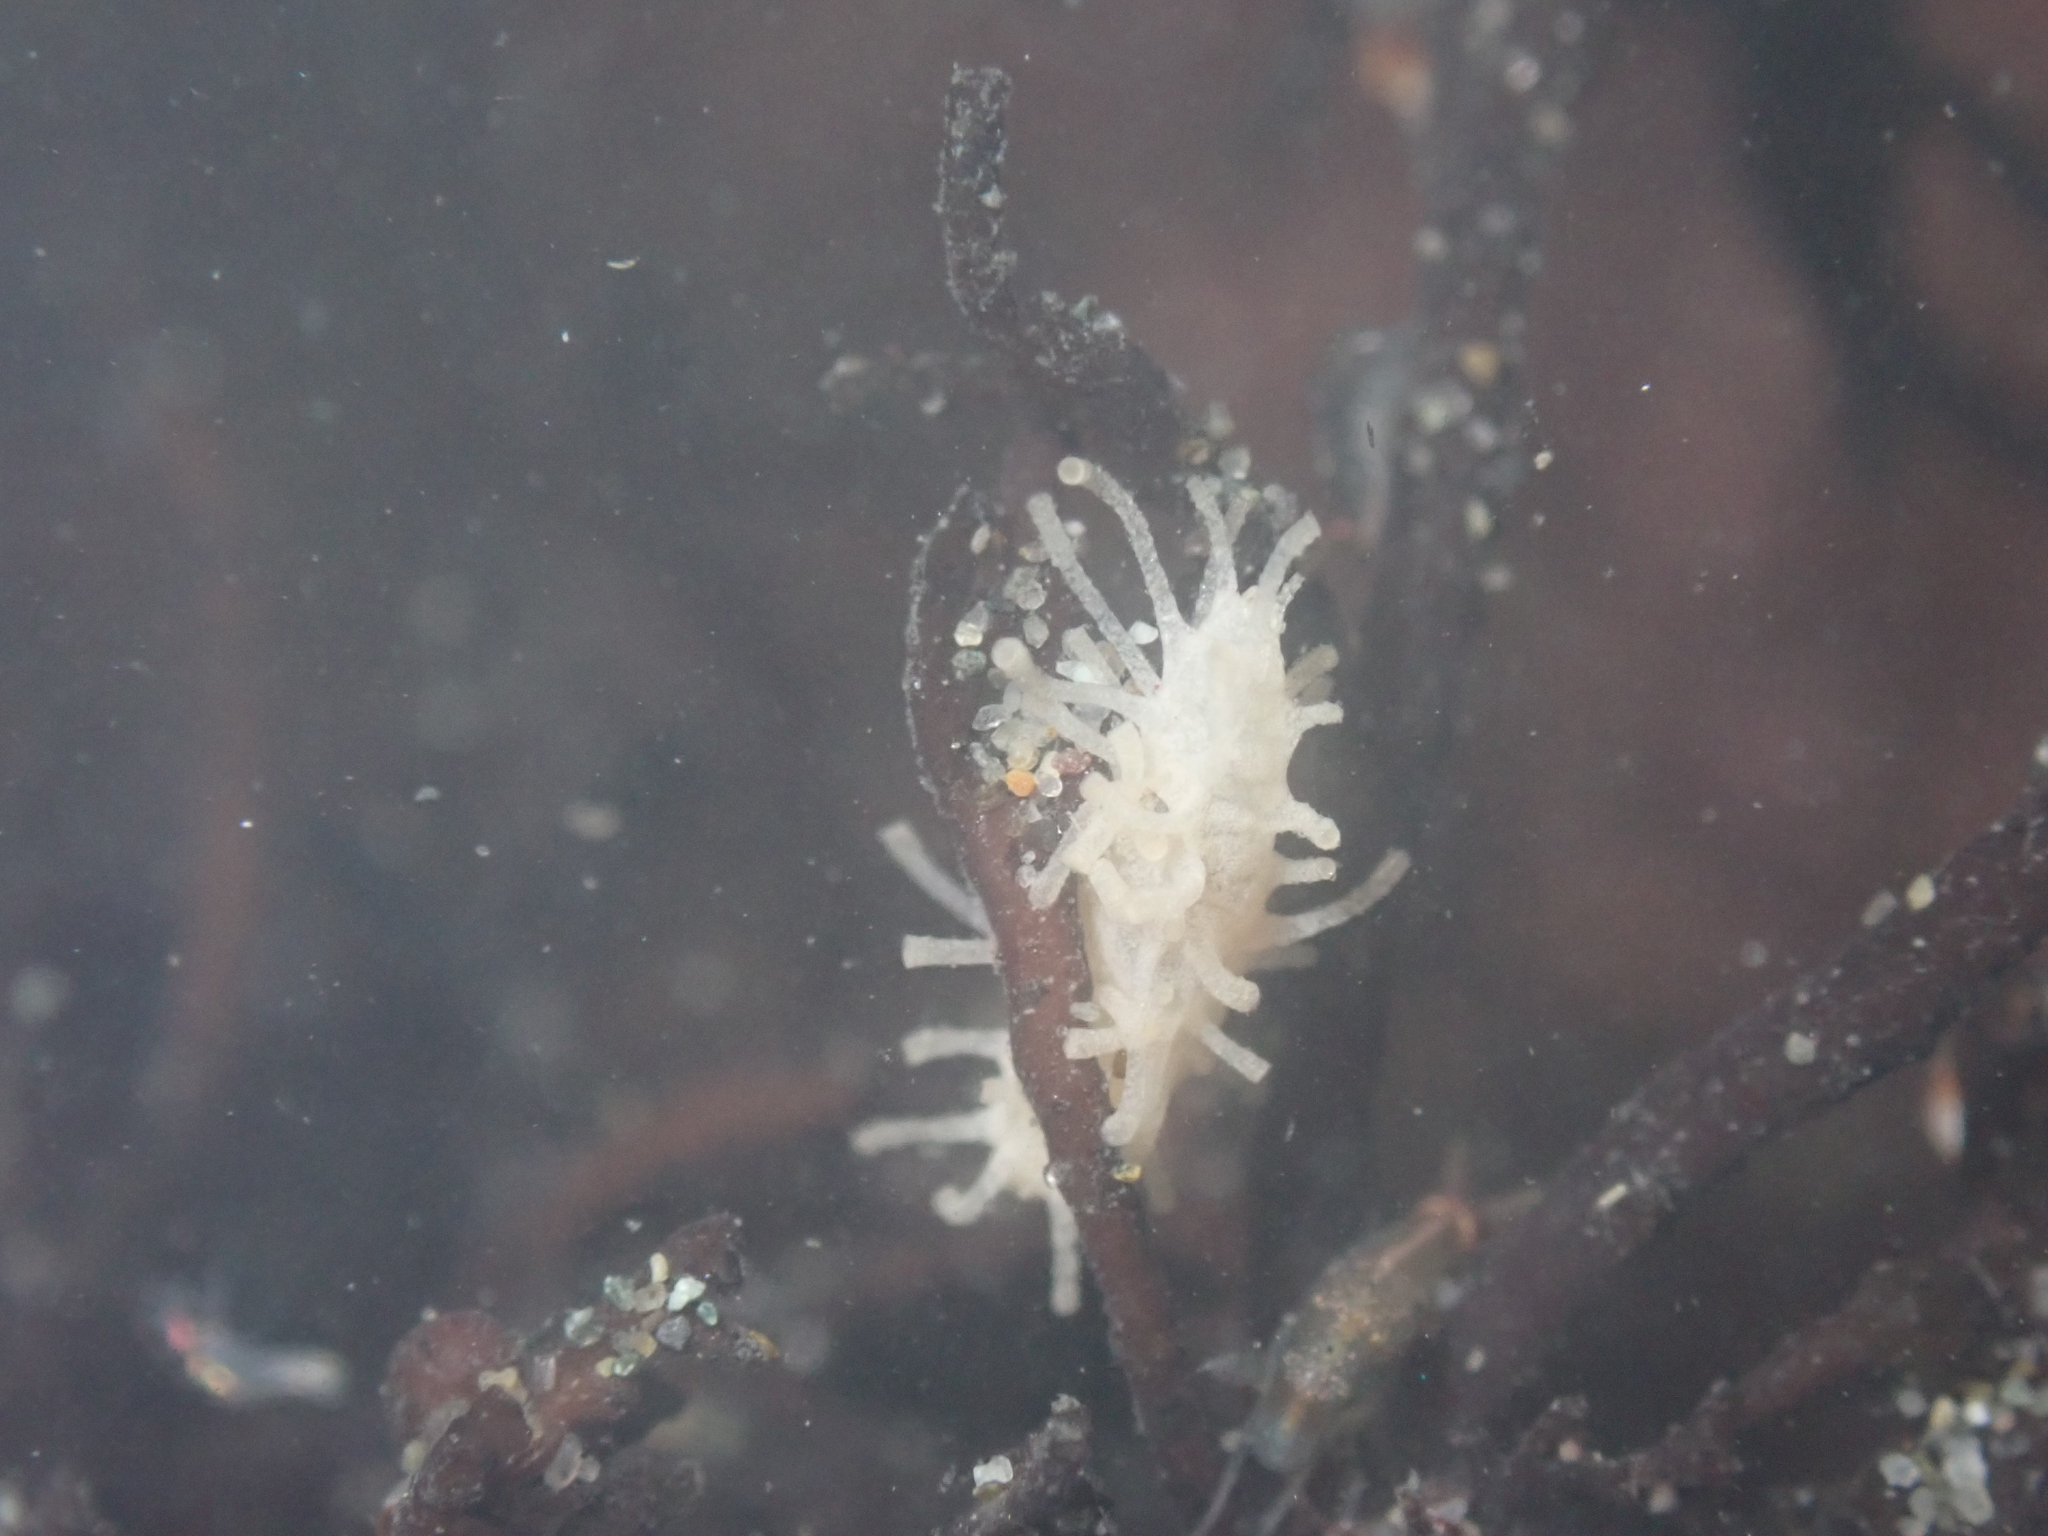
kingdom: Animalia
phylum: Echinodermata
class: Holothuroidea
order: Dendrochirotida
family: Sclerodactylidae
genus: Eupentacta
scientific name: Eupentacta quinquesemita
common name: Pentamerous sea cucumber
